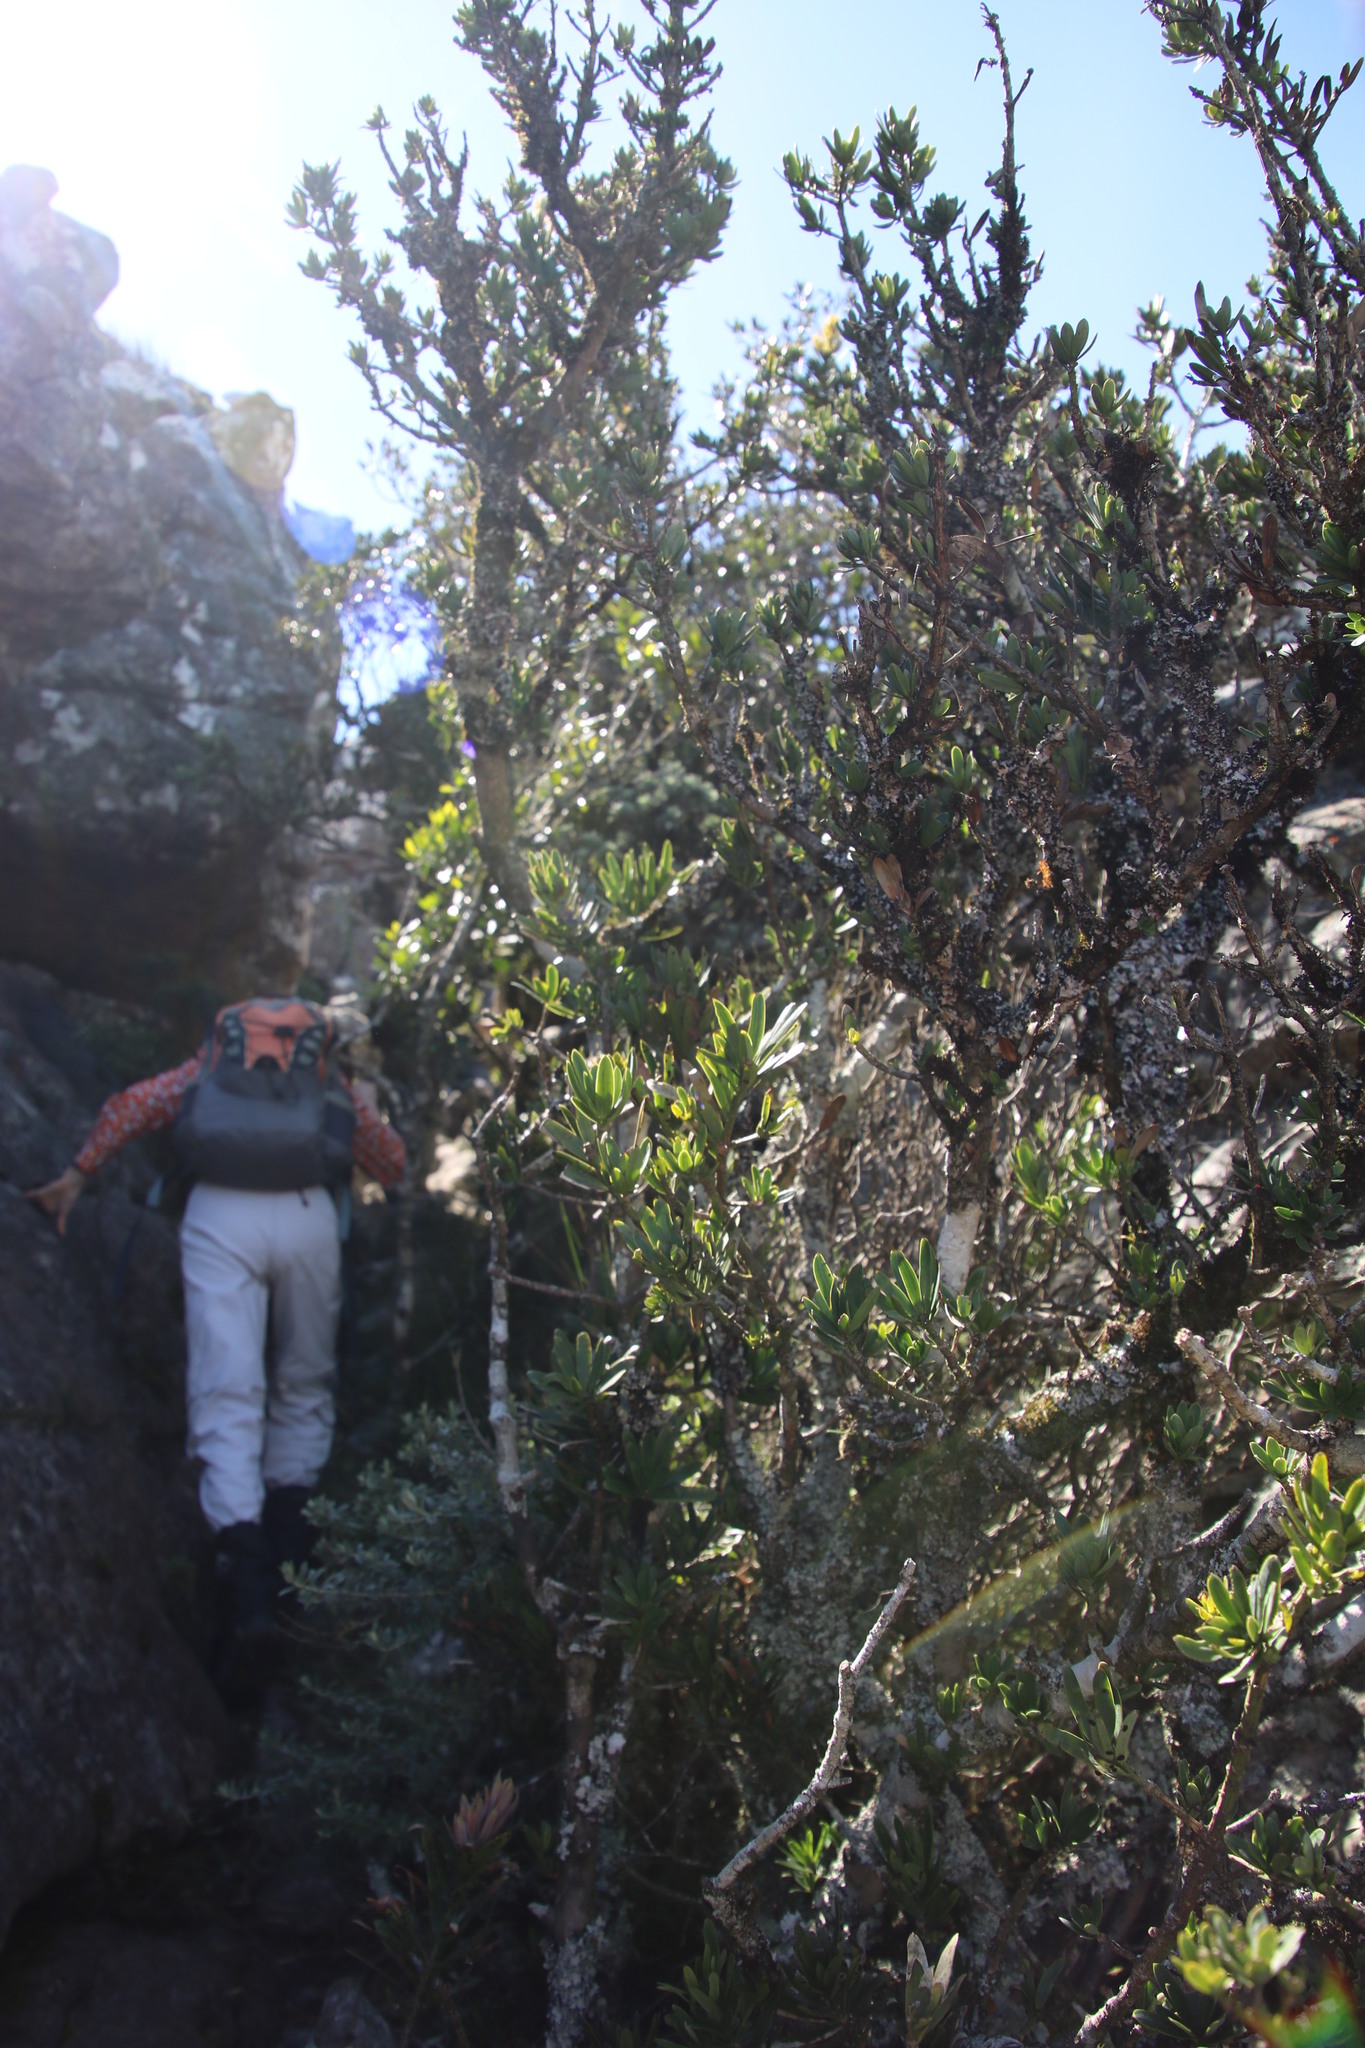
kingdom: Plantae
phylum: Tracheophyta
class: Pinopsida
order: Pinales
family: Podocarpaceae
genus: Podocarpus
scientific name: Podocarpus latifolius
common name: True yellowwood
